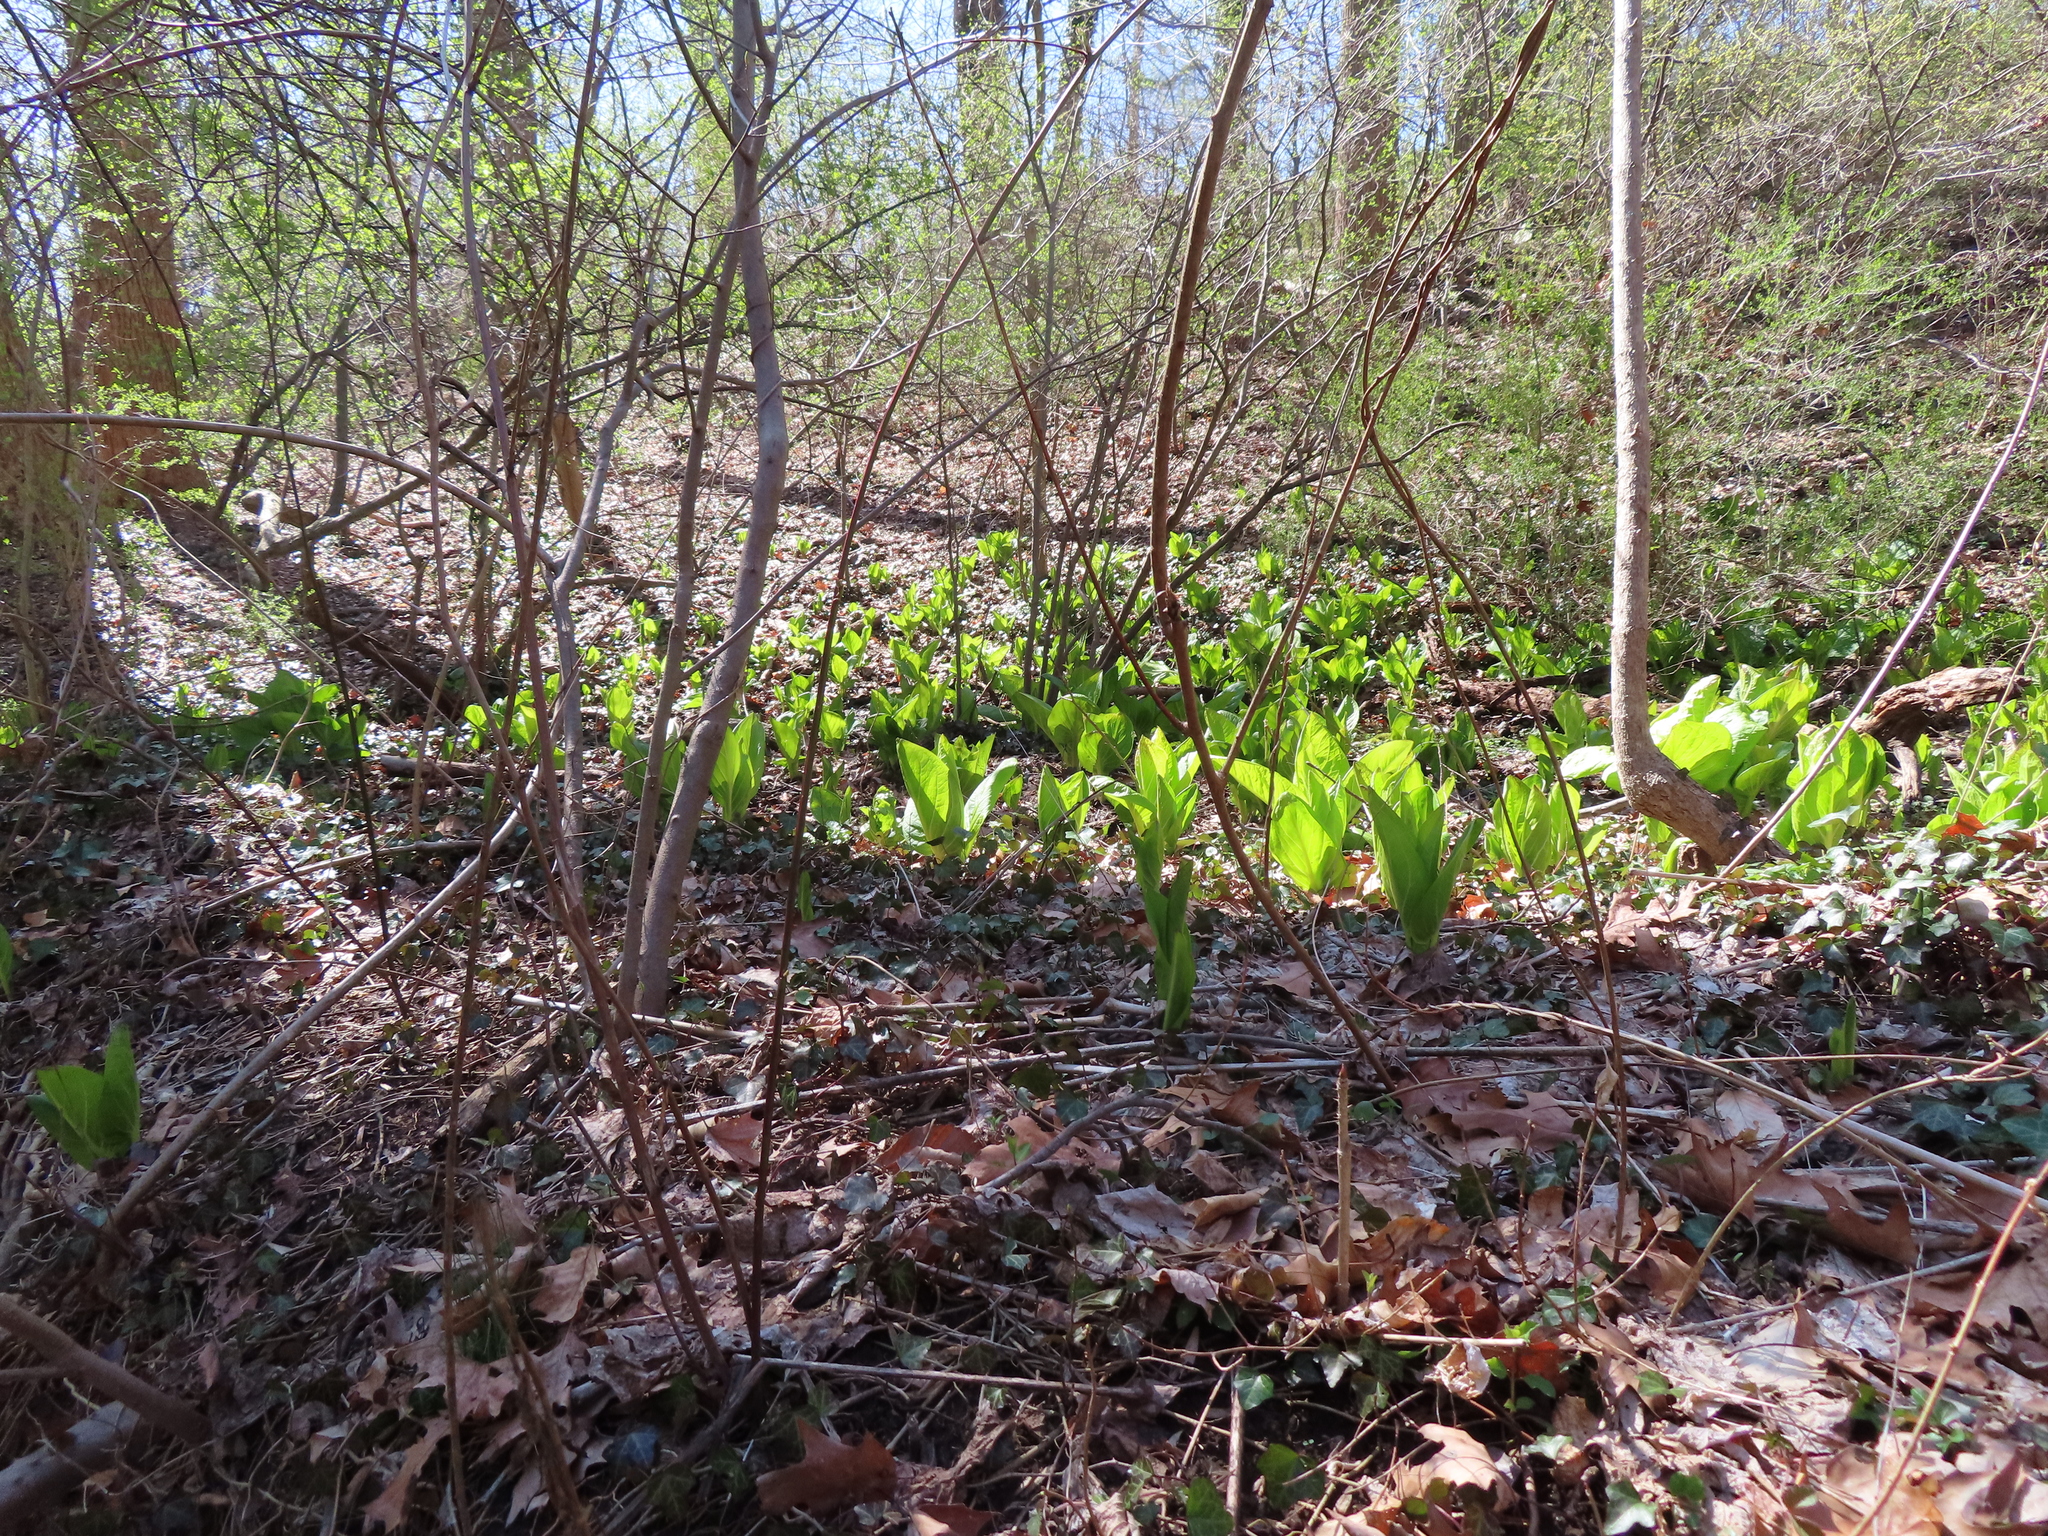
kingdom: Plantae
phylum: Tracheophyta
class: Liliopsida
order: Alismatales
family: Araceae
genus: Symplocarpus
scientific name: Symplocarpus foetidus
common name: Eastern skunk cabbage
